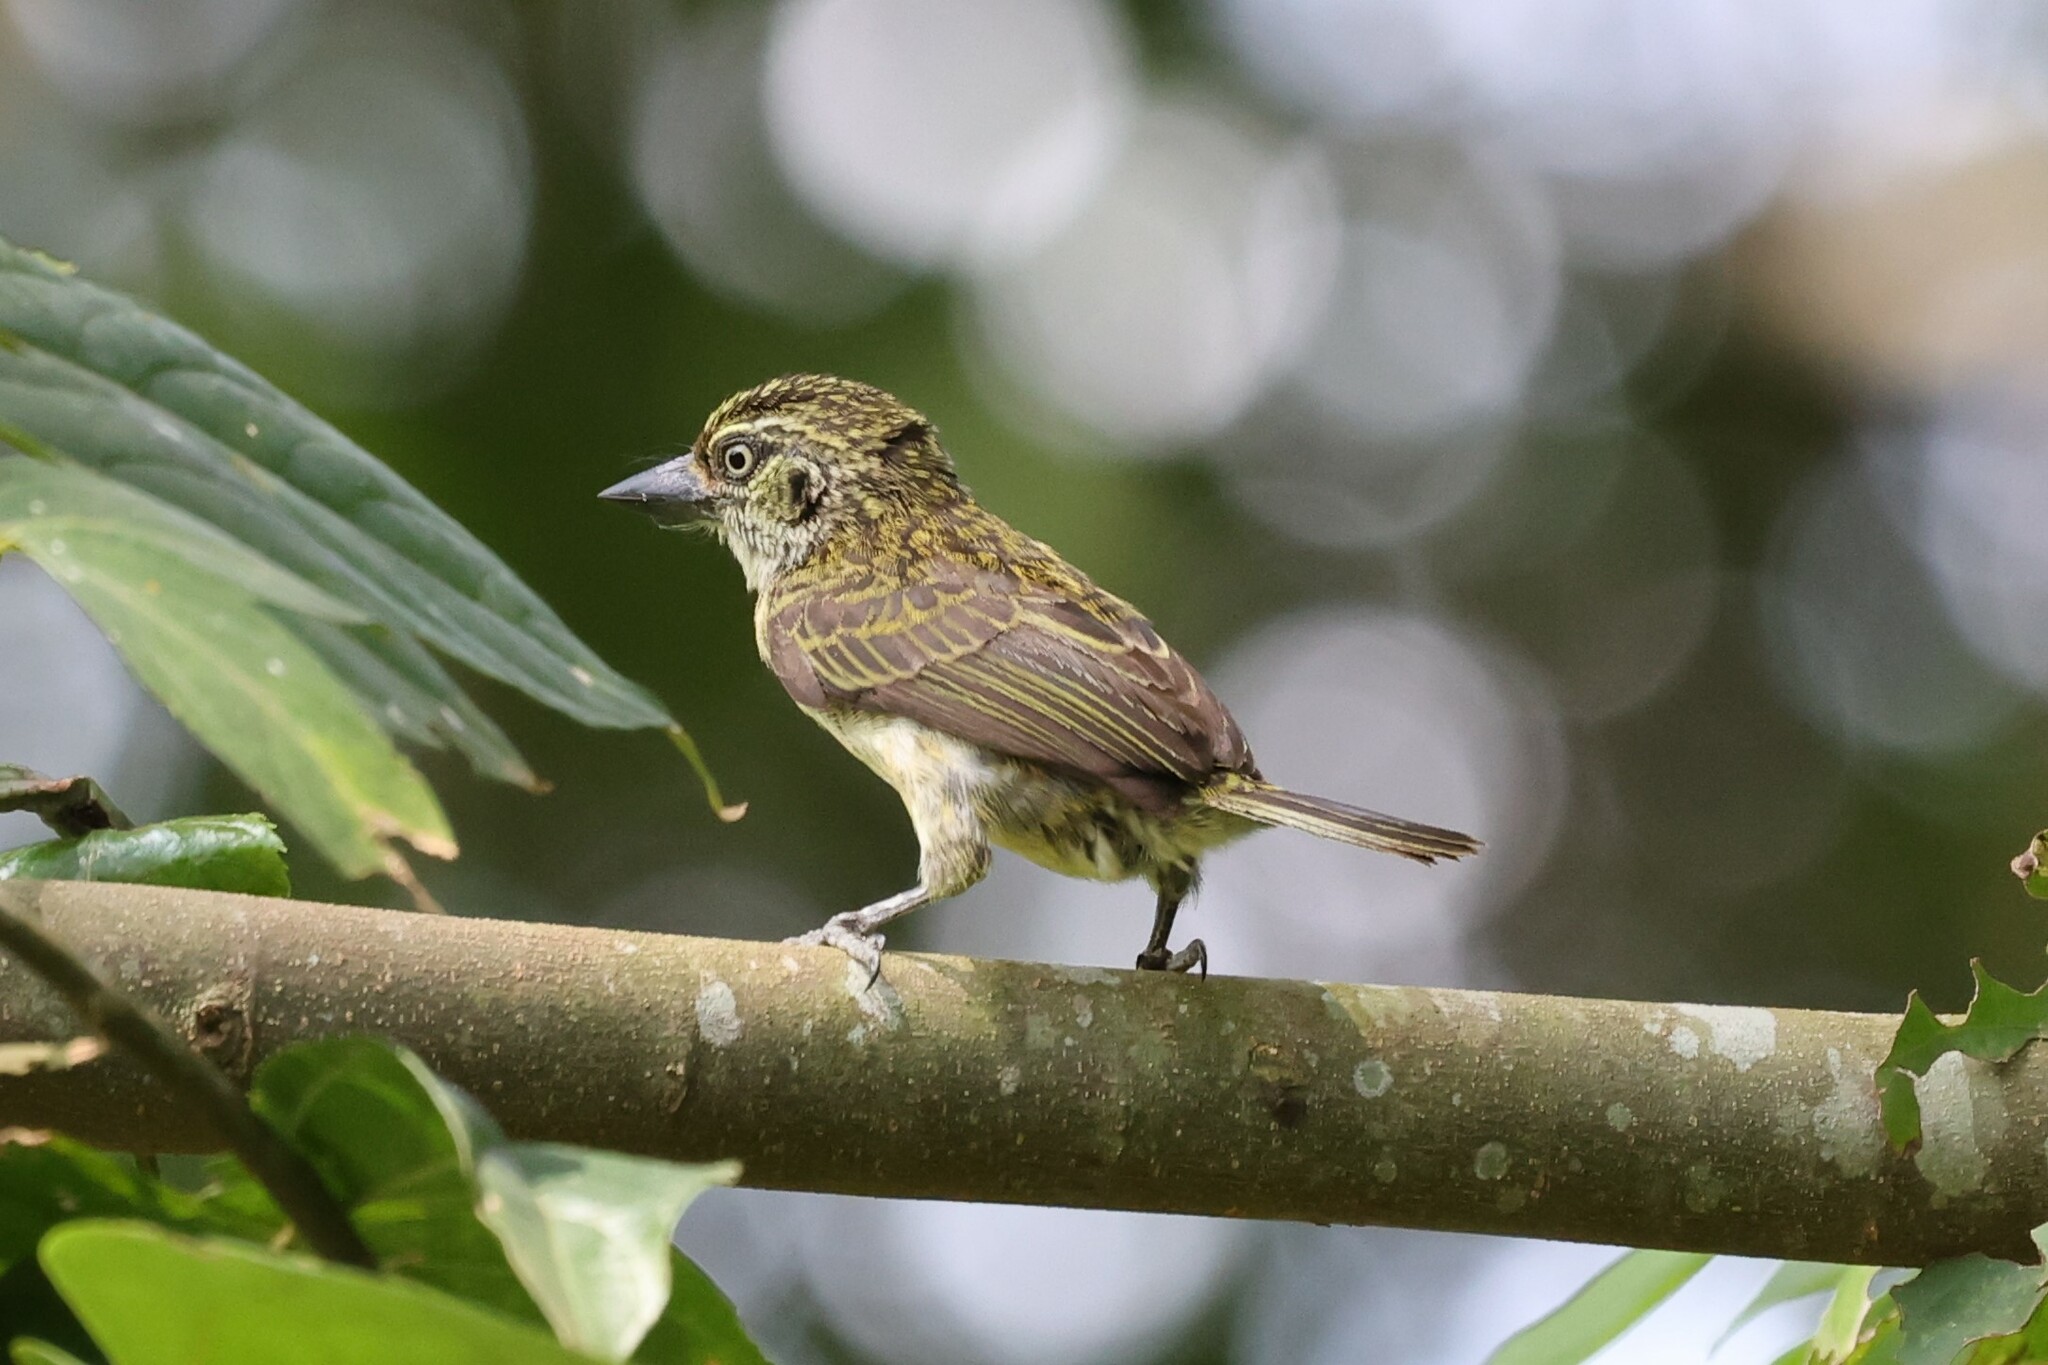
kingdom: Animalia
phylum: Chordata
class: Aves
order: Piciformes
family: Lybiidae
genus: Pogoniulus
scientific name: Pogoniulus scolopaceus
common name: Speckled tinkerbird
